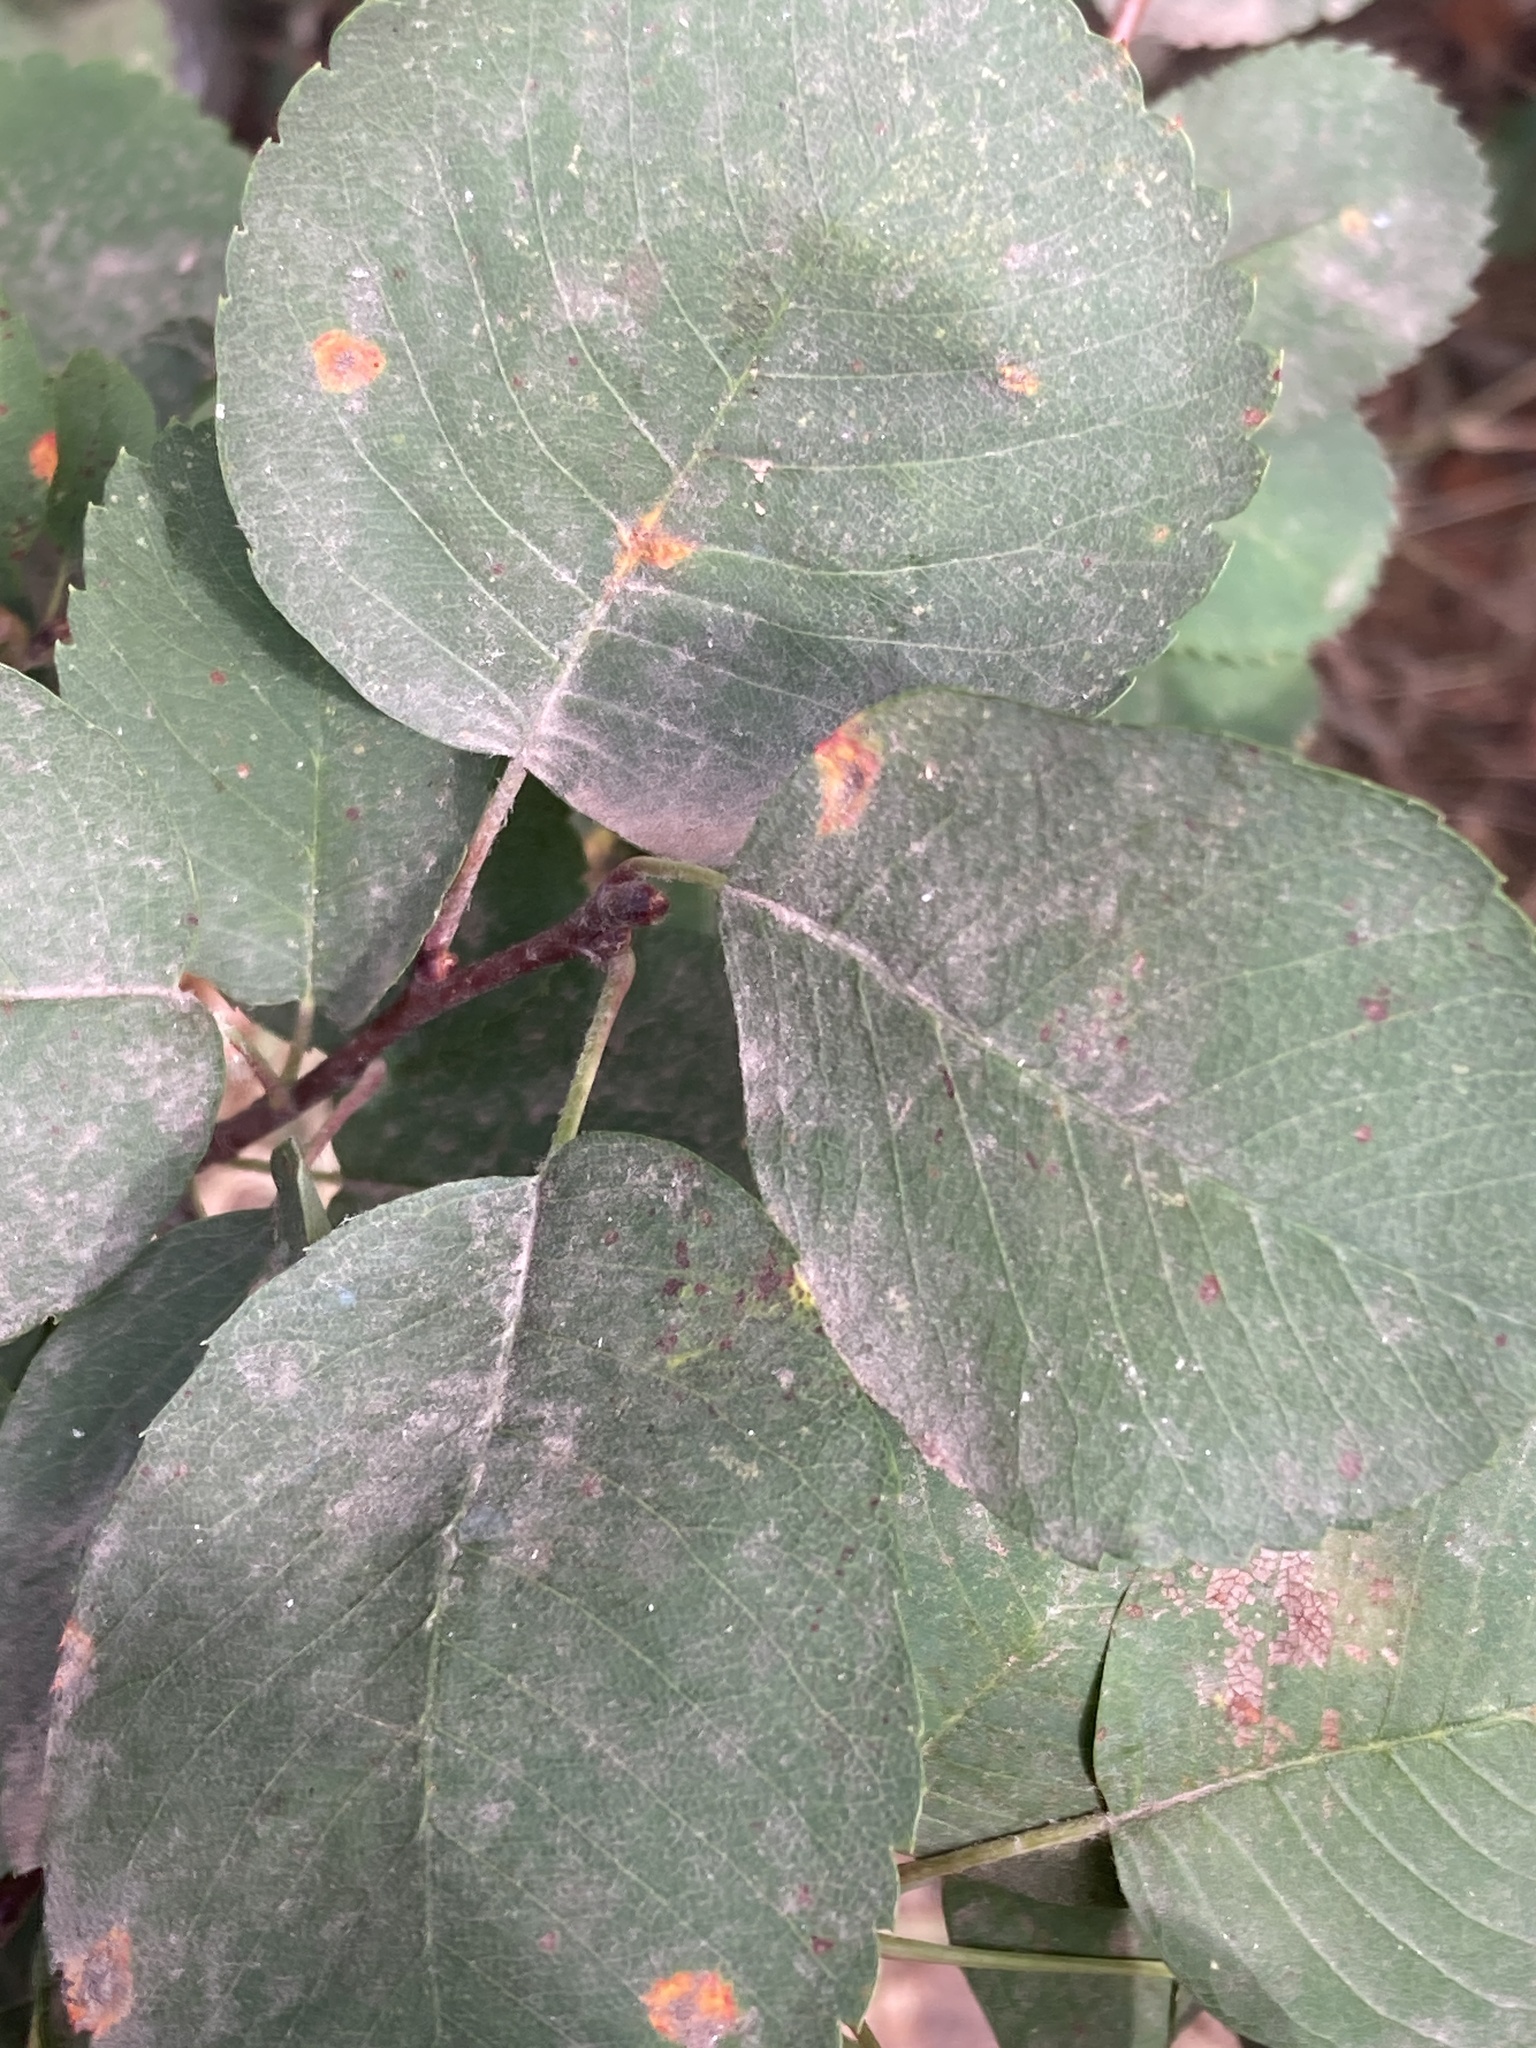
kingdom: Plantae
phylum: Tracheophyta
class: Magnoliopsida
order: Rosales
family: Rosaceae
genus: Amelanchier
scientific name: Amelanchier alnifolia
